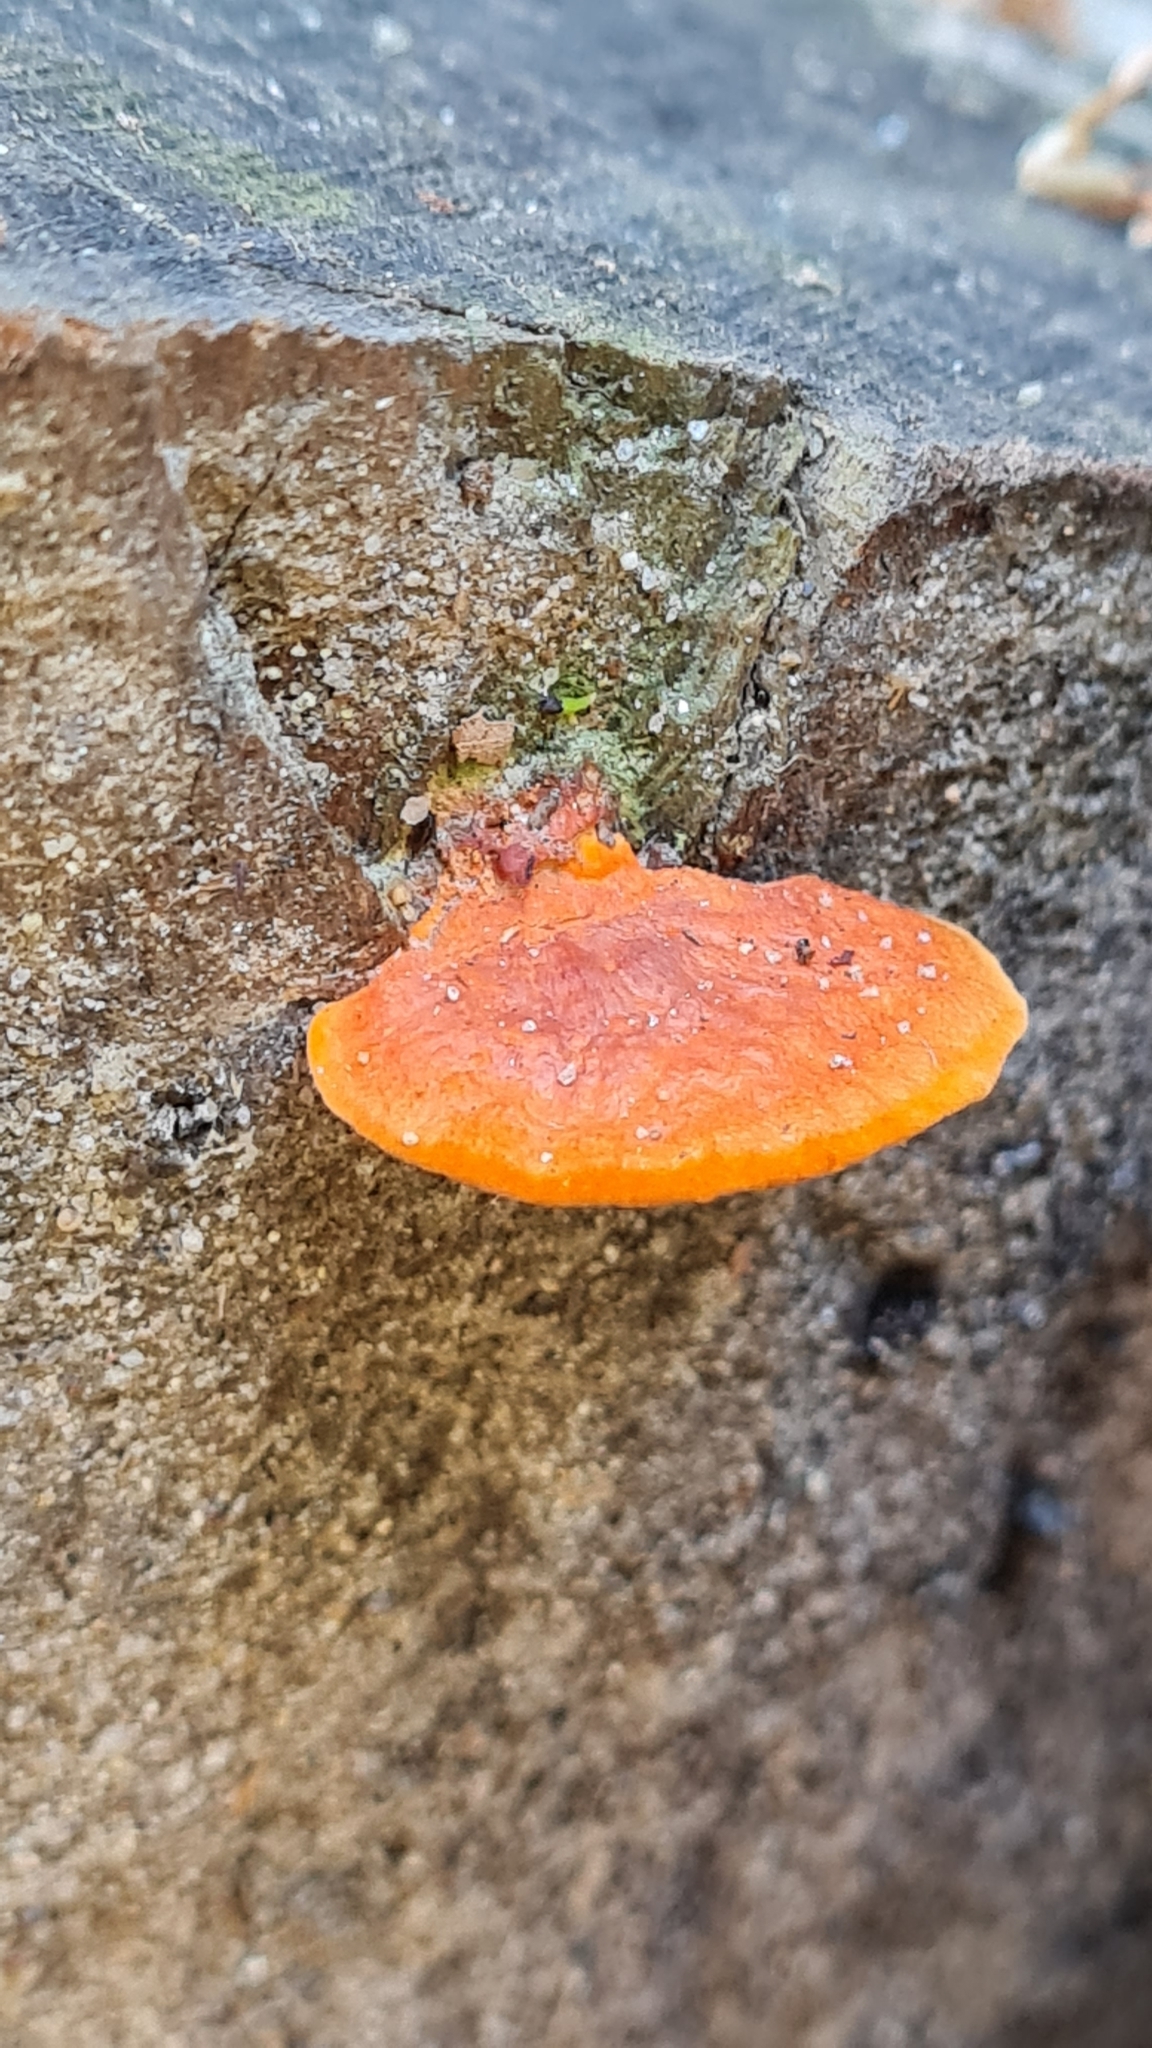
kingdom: Fungi
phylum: Basidiomycota
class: Agaricomycetes
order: Polyporales
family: Polyporaceae
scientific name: Polyporaceae
